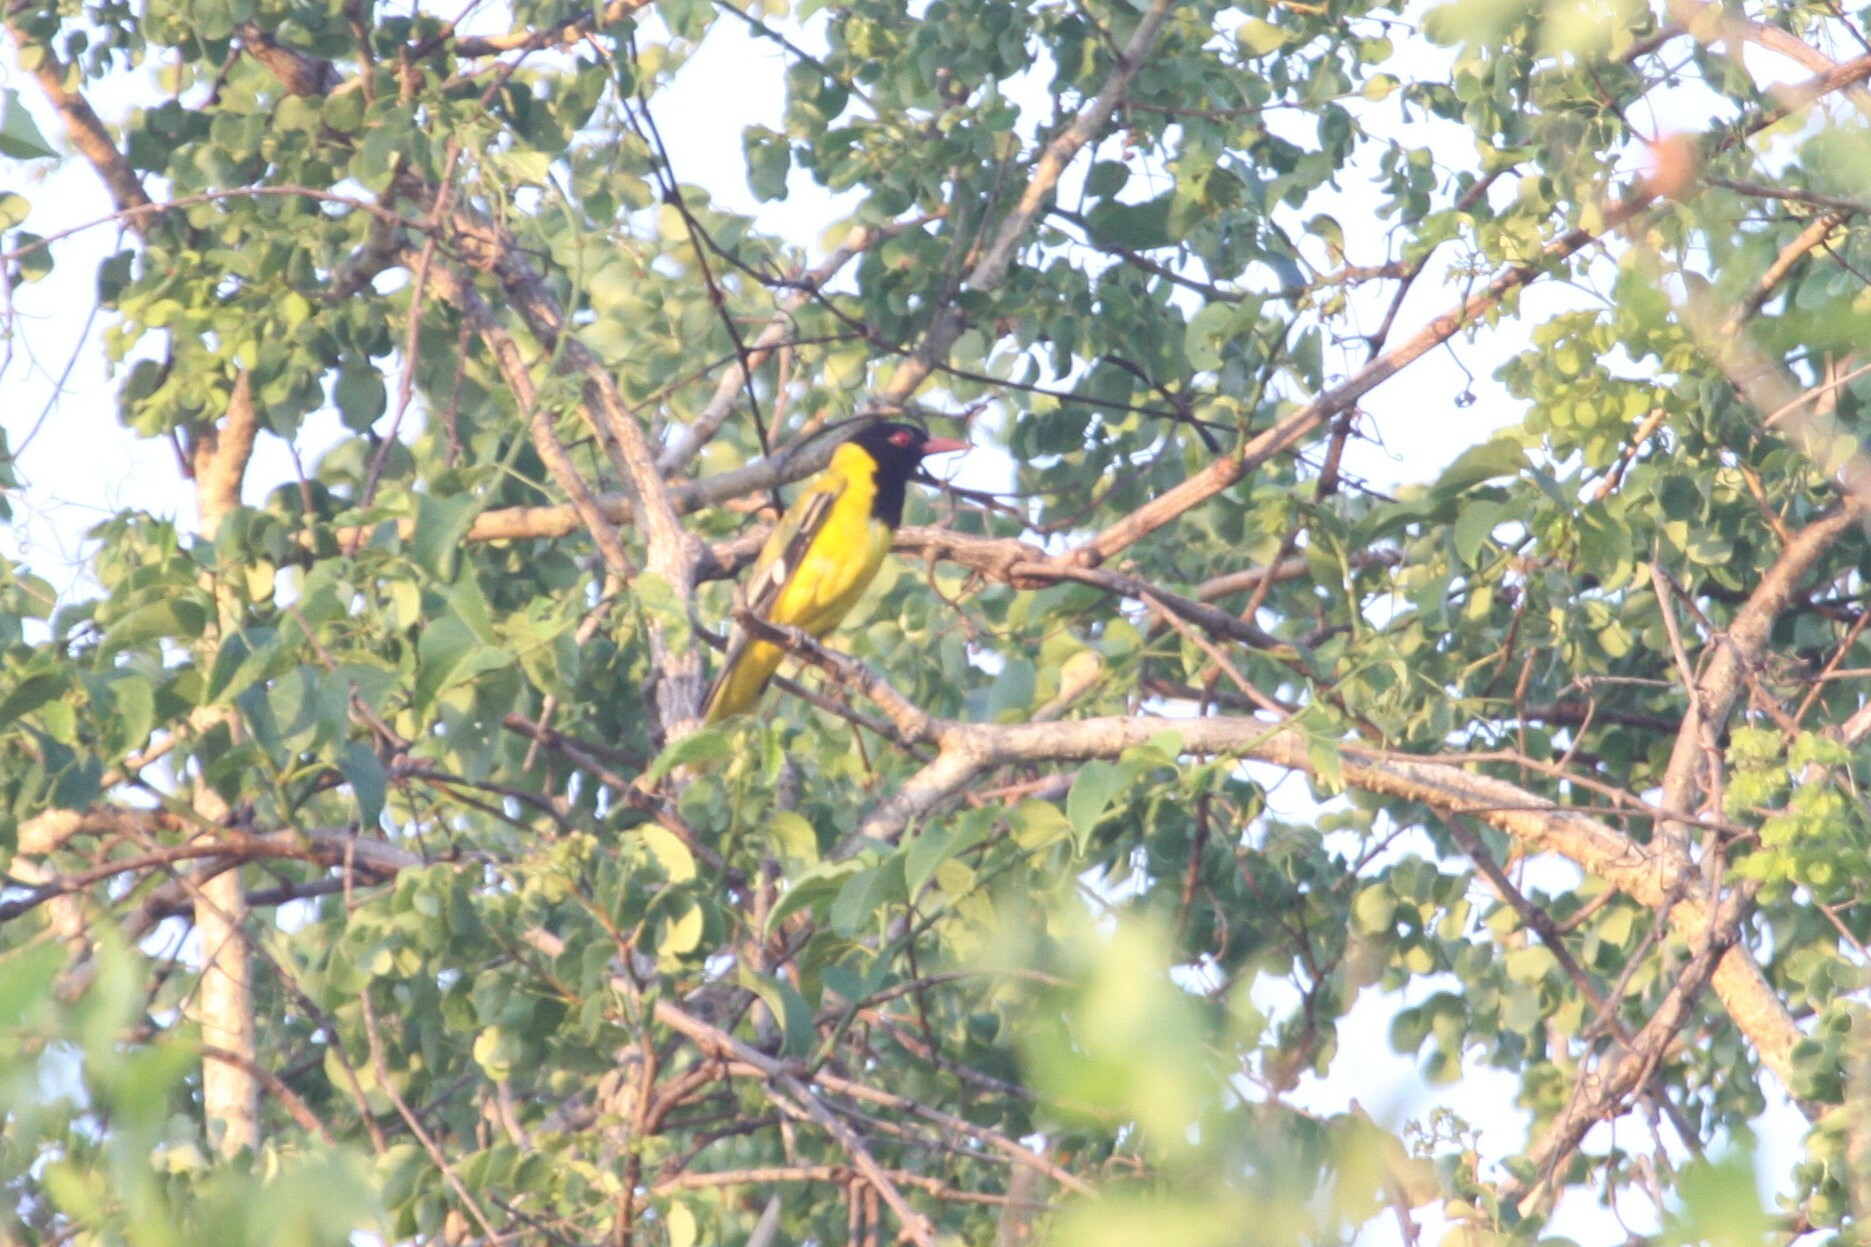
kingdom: Animalia
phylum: Chordata
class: Aves
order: Passeriformes
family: Oriolidae
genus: Oriolus
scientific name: Oriolus larvatus
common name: Black-headed oriole
